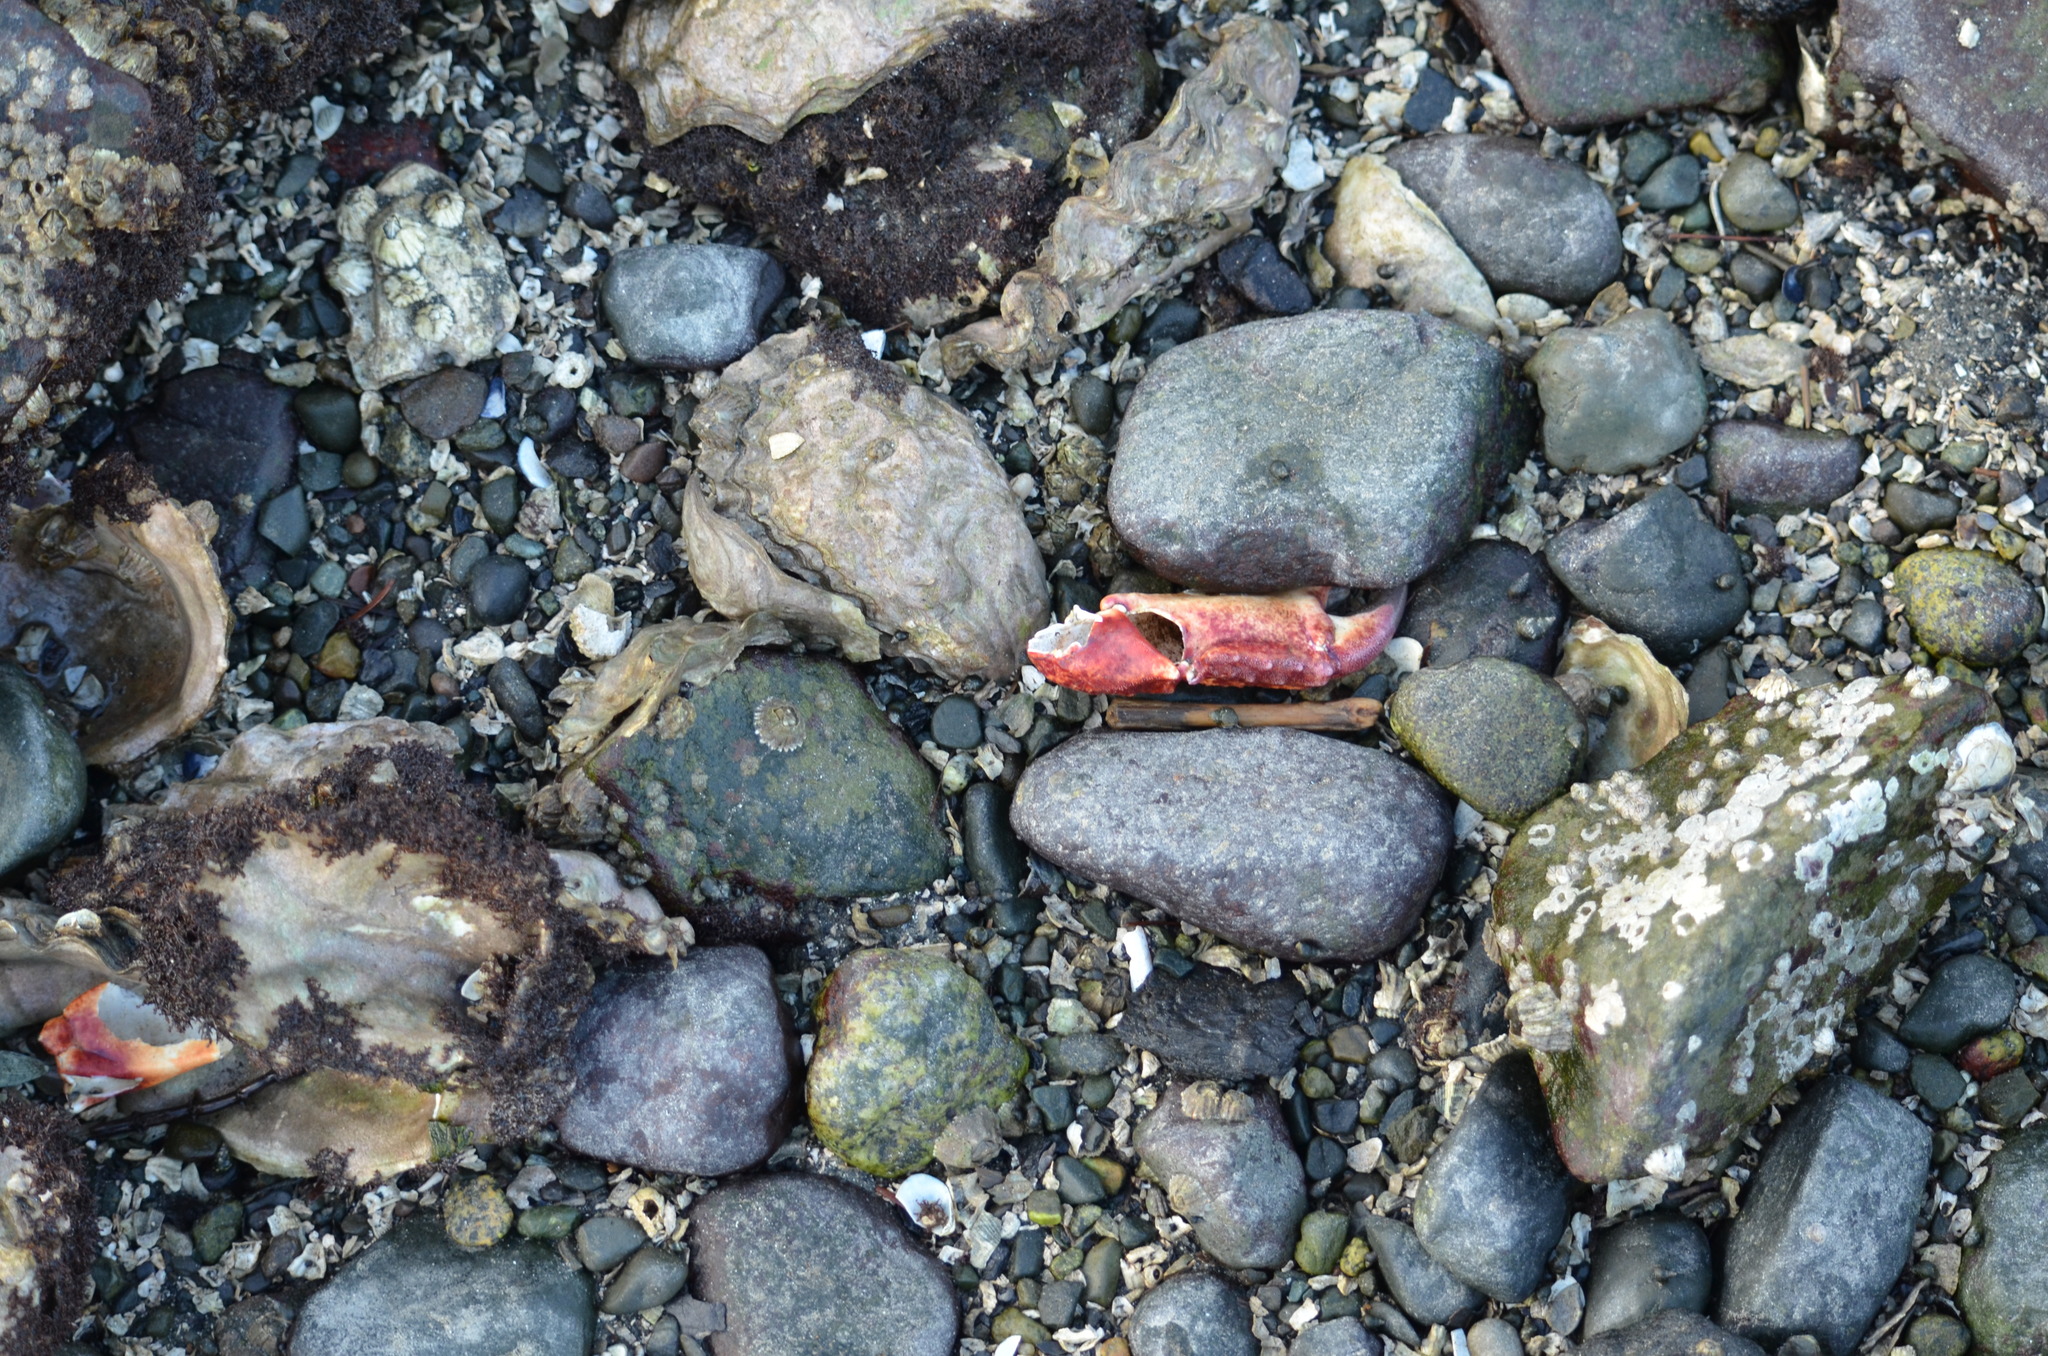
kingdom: Animalia
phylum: Arthropoda
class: Malacostraca
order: Decapoda
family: Cancridae
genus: Cancer
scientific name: Cancer productus
